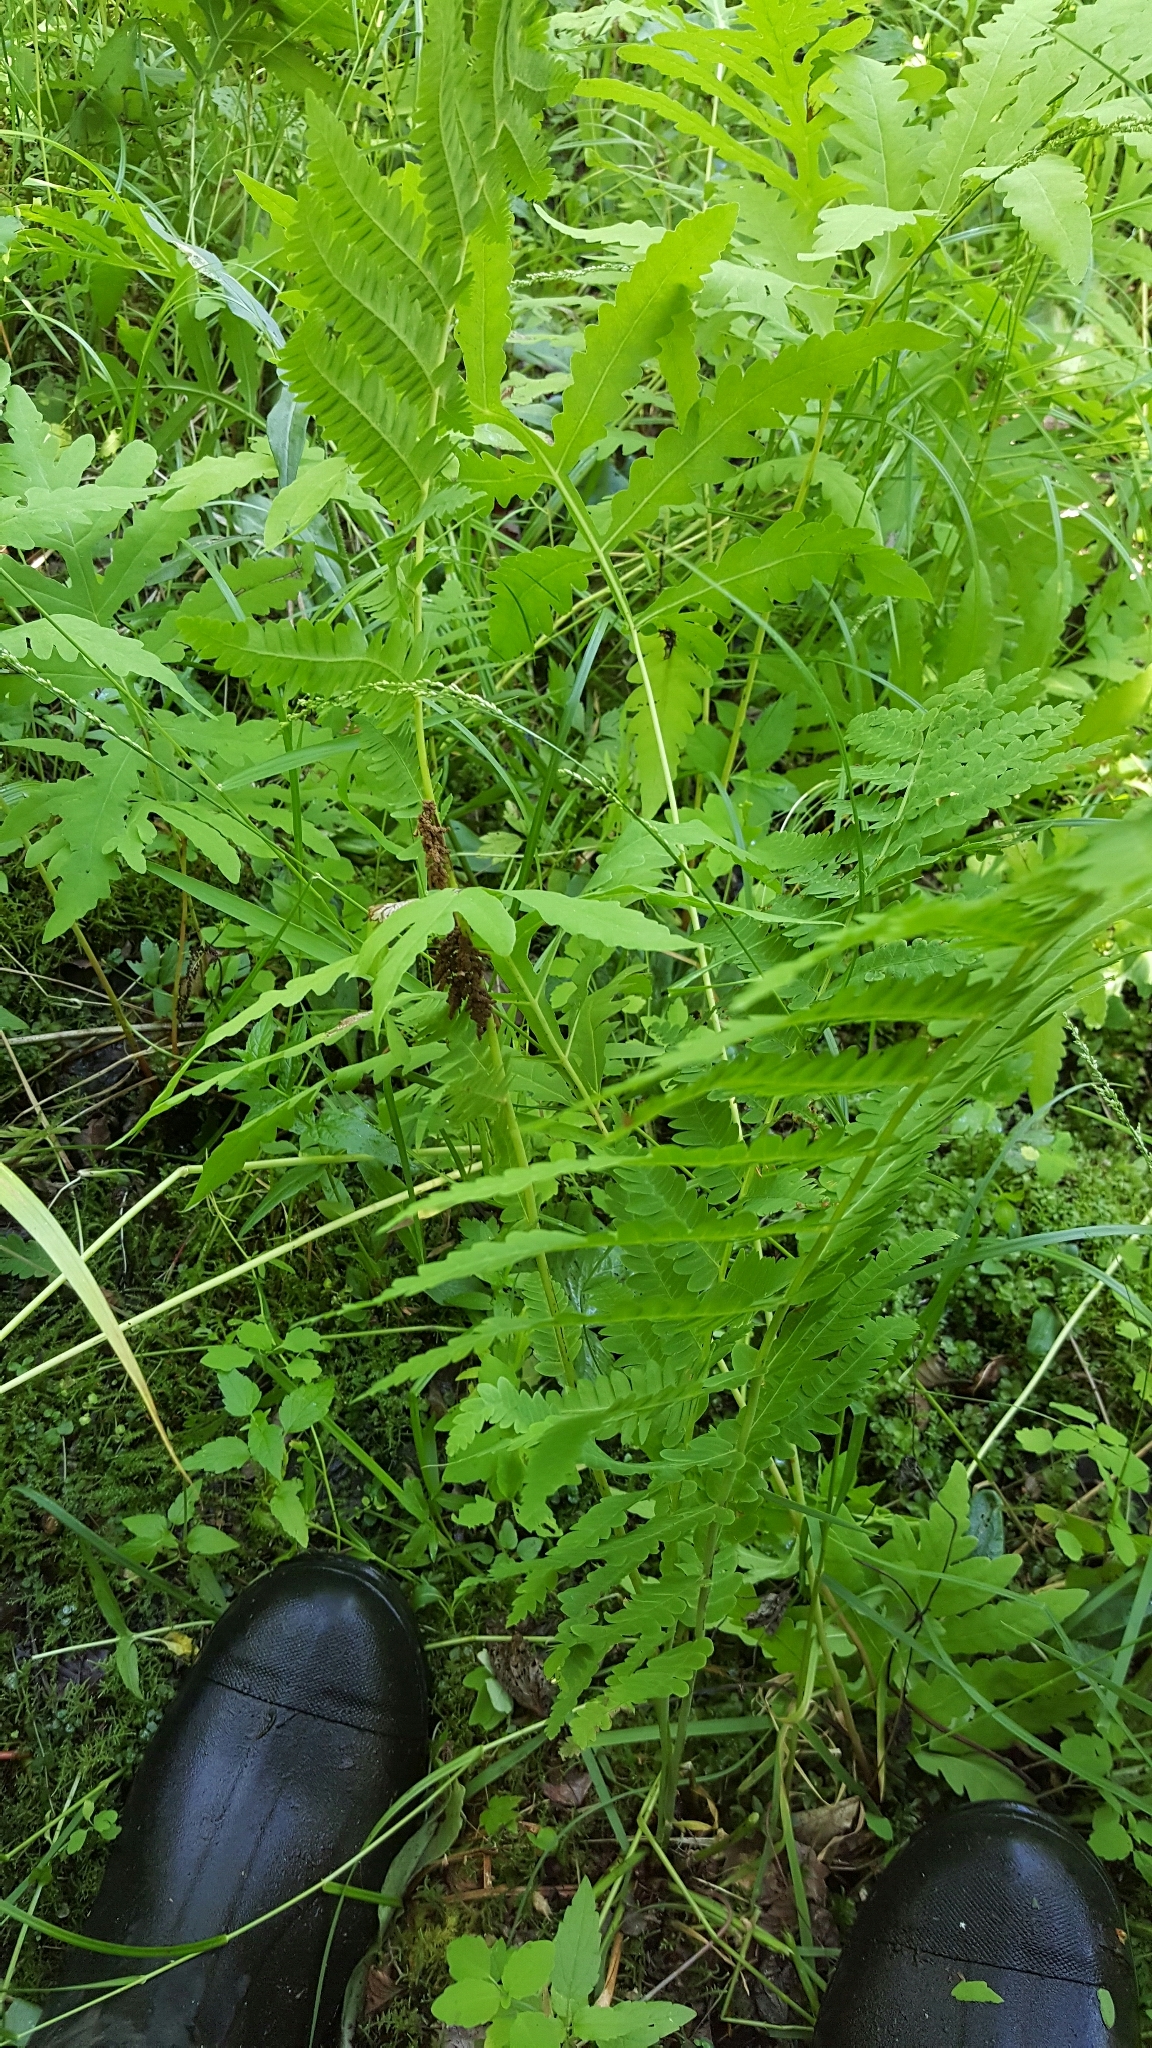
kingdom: Plantae
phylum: Tracheophyta
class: Polypodiopsida
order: Osmundales
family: Osmundaceae
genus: Claytosmunda
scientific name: Claytosmunda claytoniana
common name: Clayton's fern
